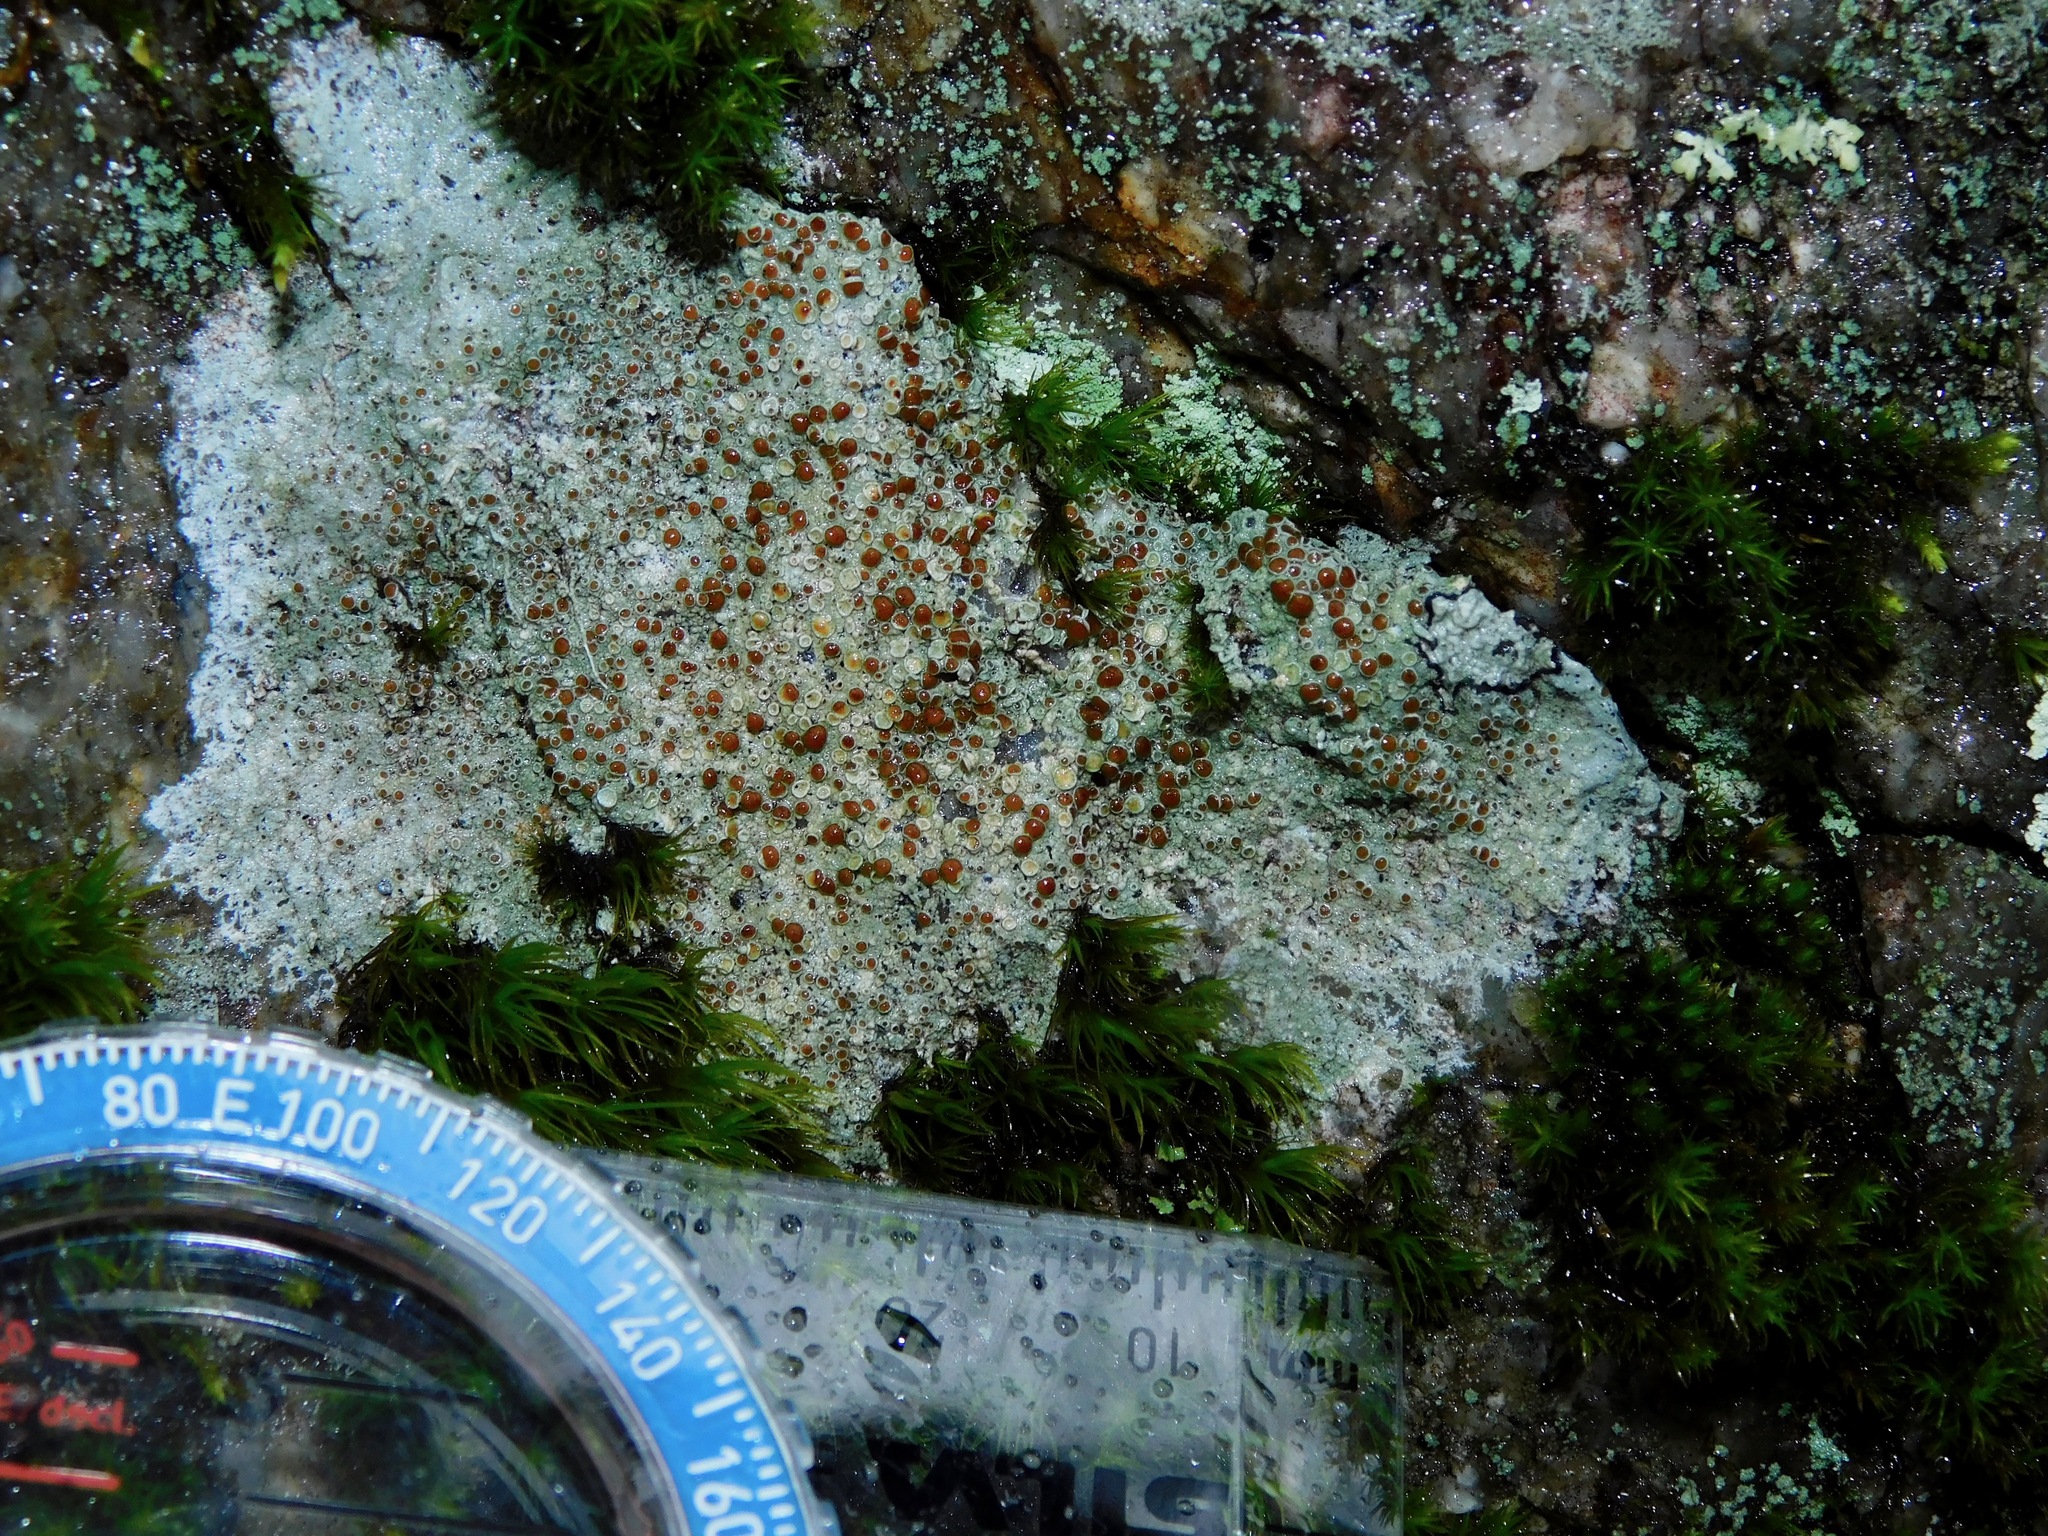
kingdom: Fungi
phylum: Ascomycota
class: Lecanoromycetes
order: Lecanorales
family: Lecanoraceae
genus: Lecanora
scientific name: Lecanora saxigena
